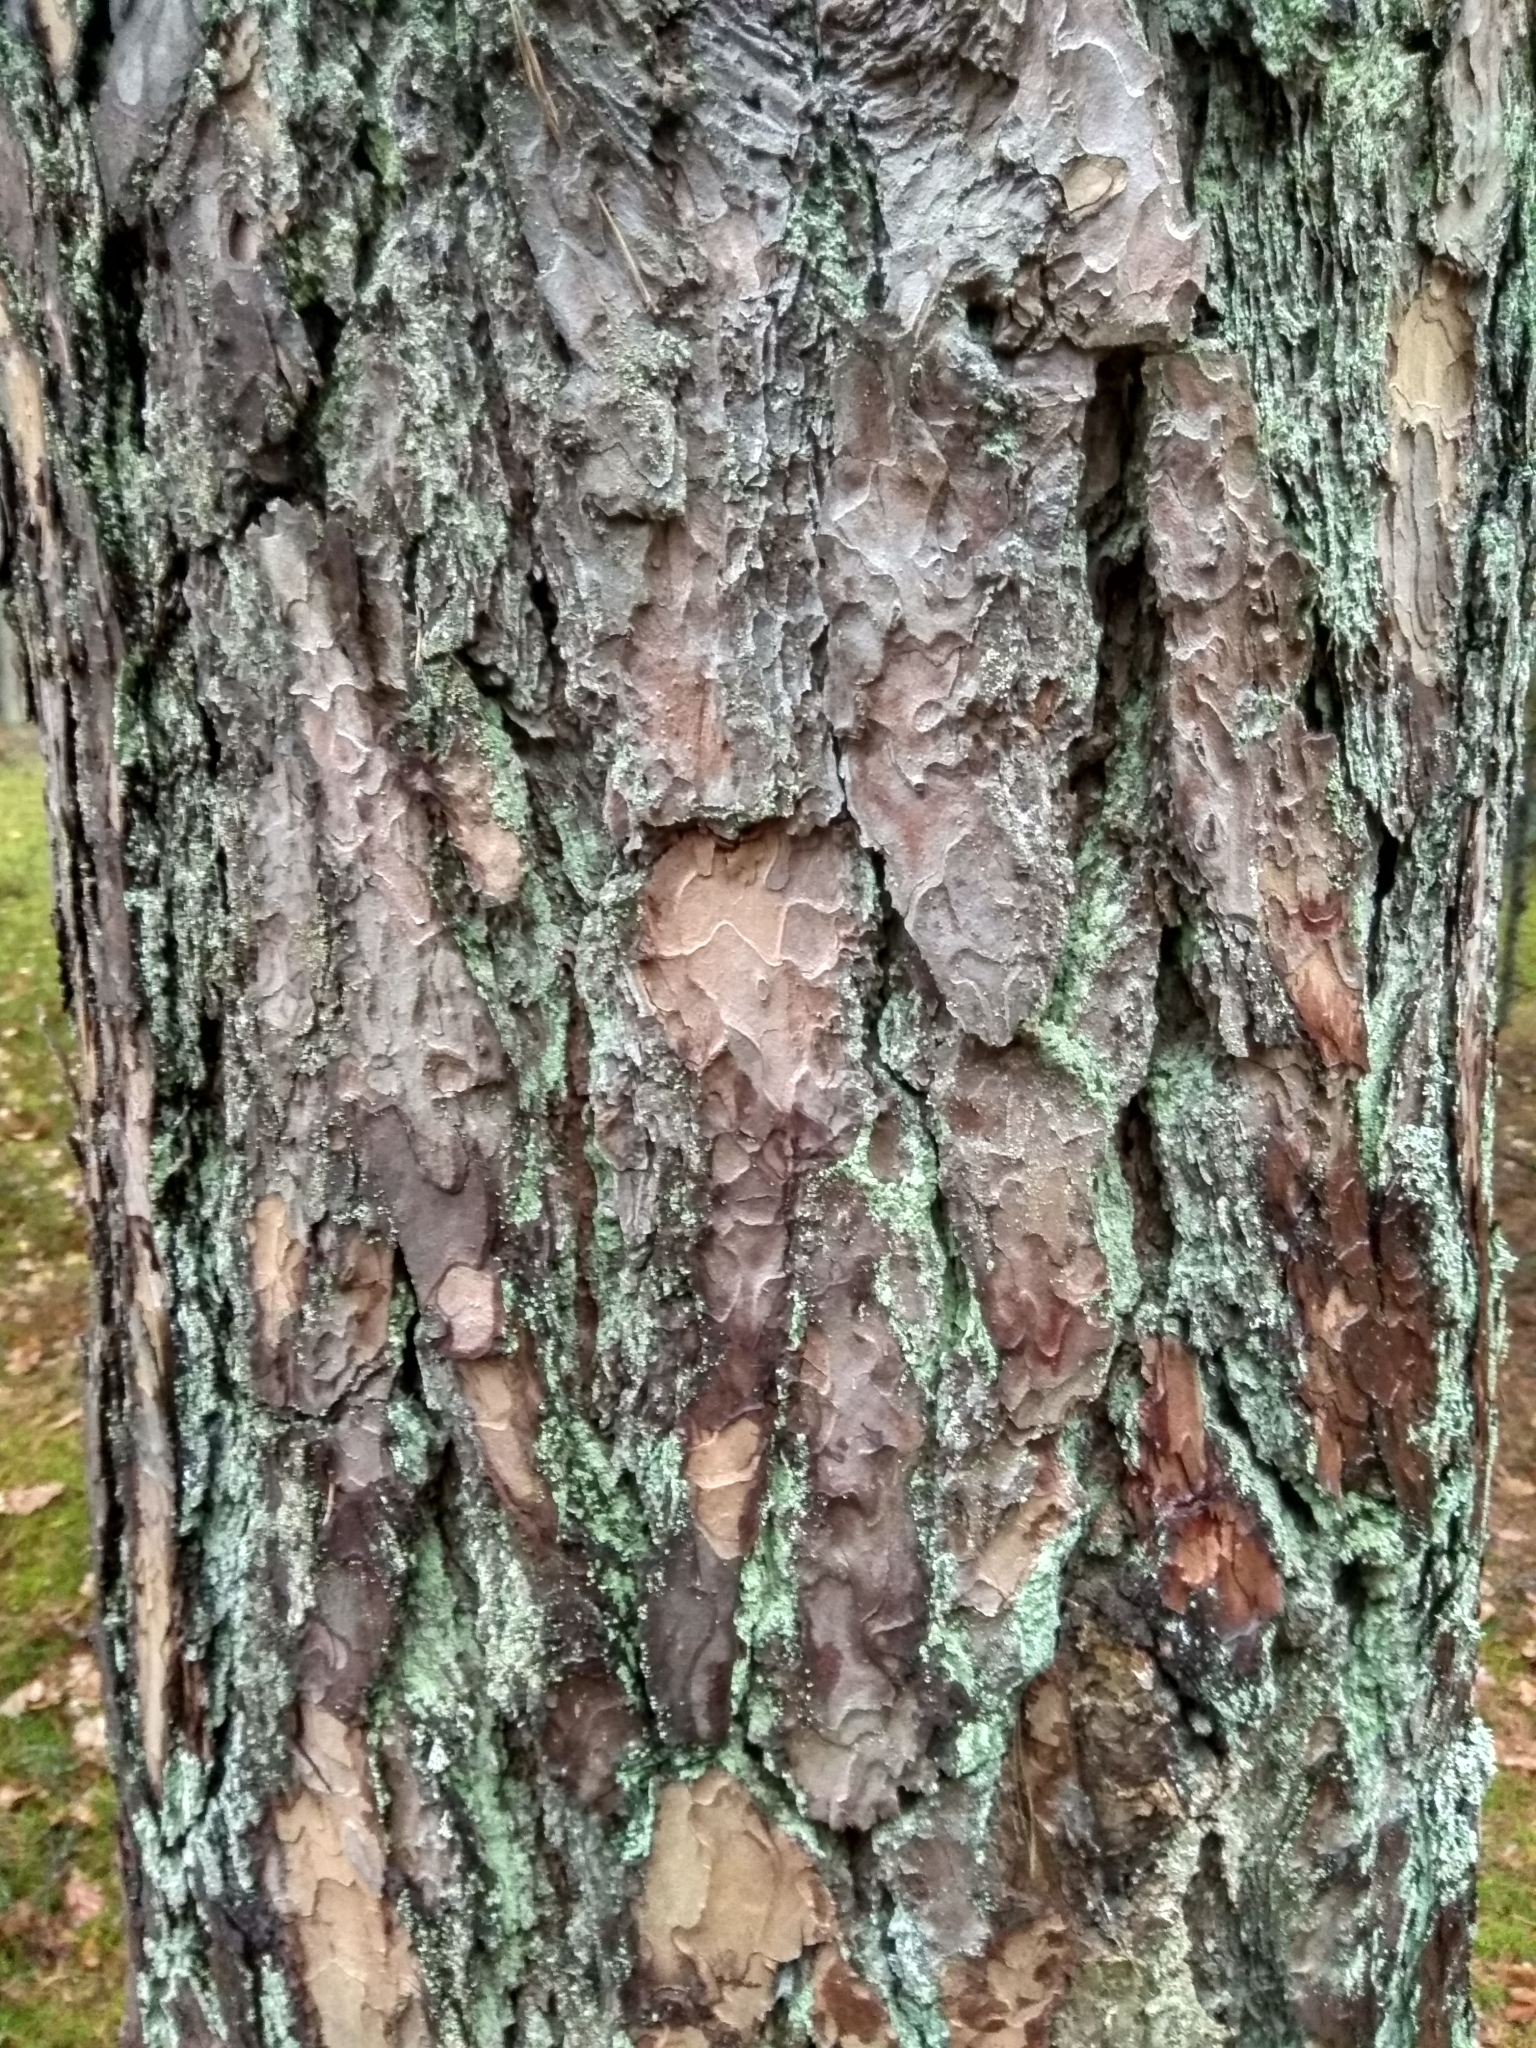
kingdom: Plantae
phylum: Tracheophyta
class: Pinopsida
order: Pinales
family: Pinaceae
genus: Pinus
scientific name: Pinus sylvestris
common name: Scots pine
